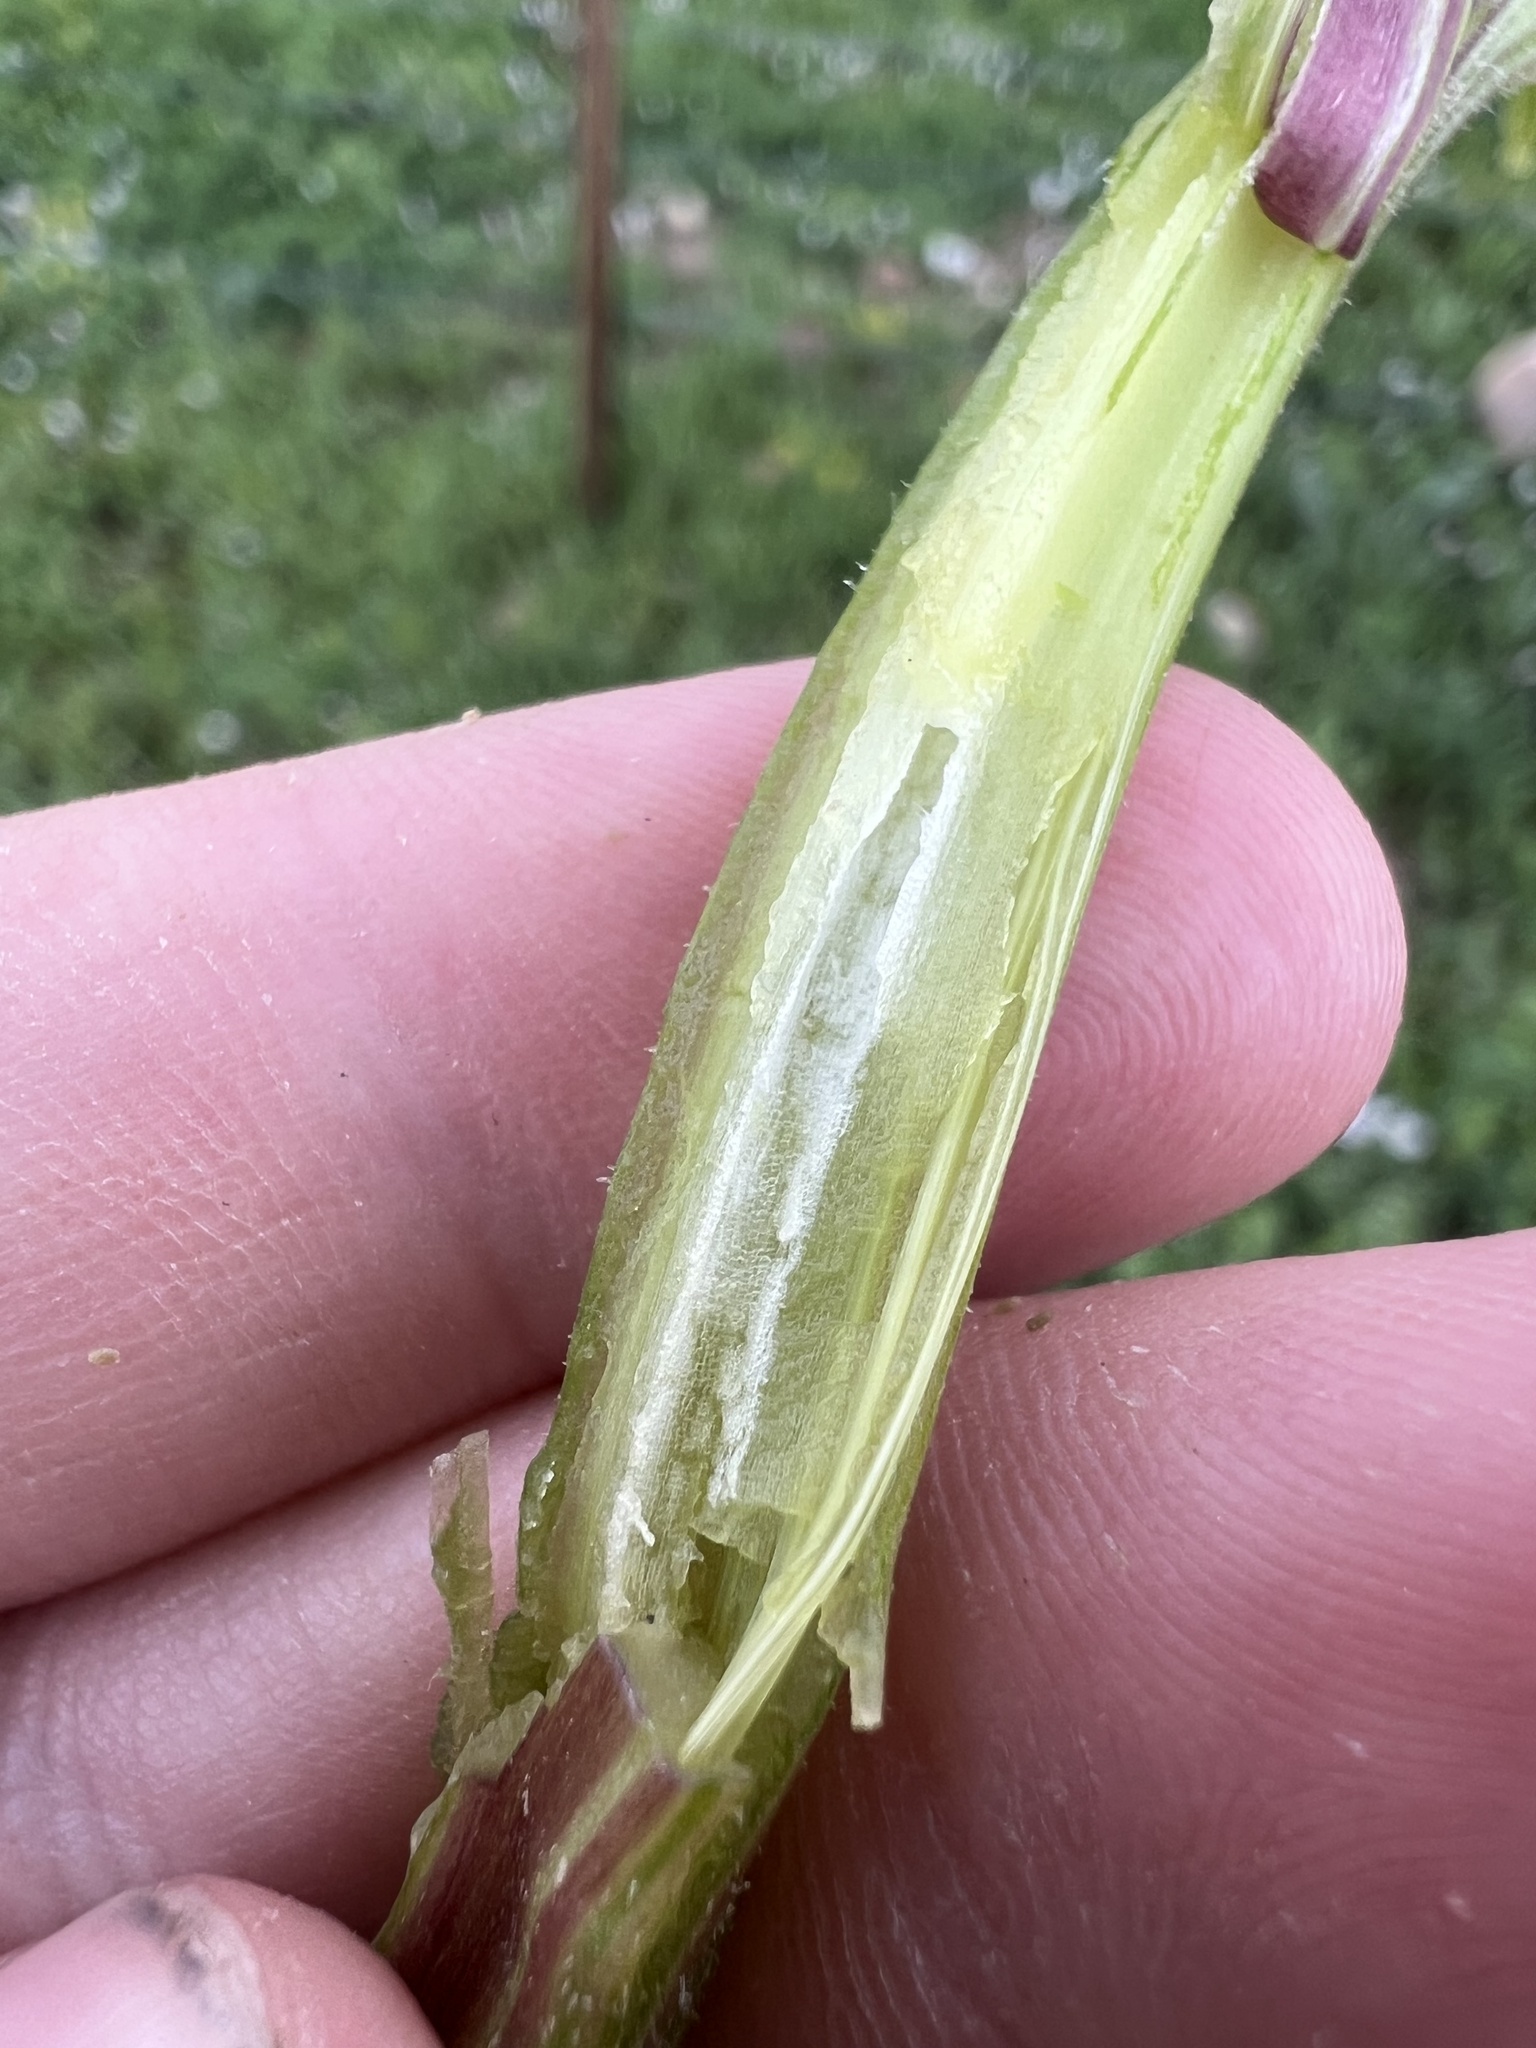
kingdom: Plantae
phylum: Tracheophyta
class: Magnoliopsida
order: Asterales
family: Asteraceae
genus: Arctium
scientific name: Arctium minus
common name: Lesser burdock
